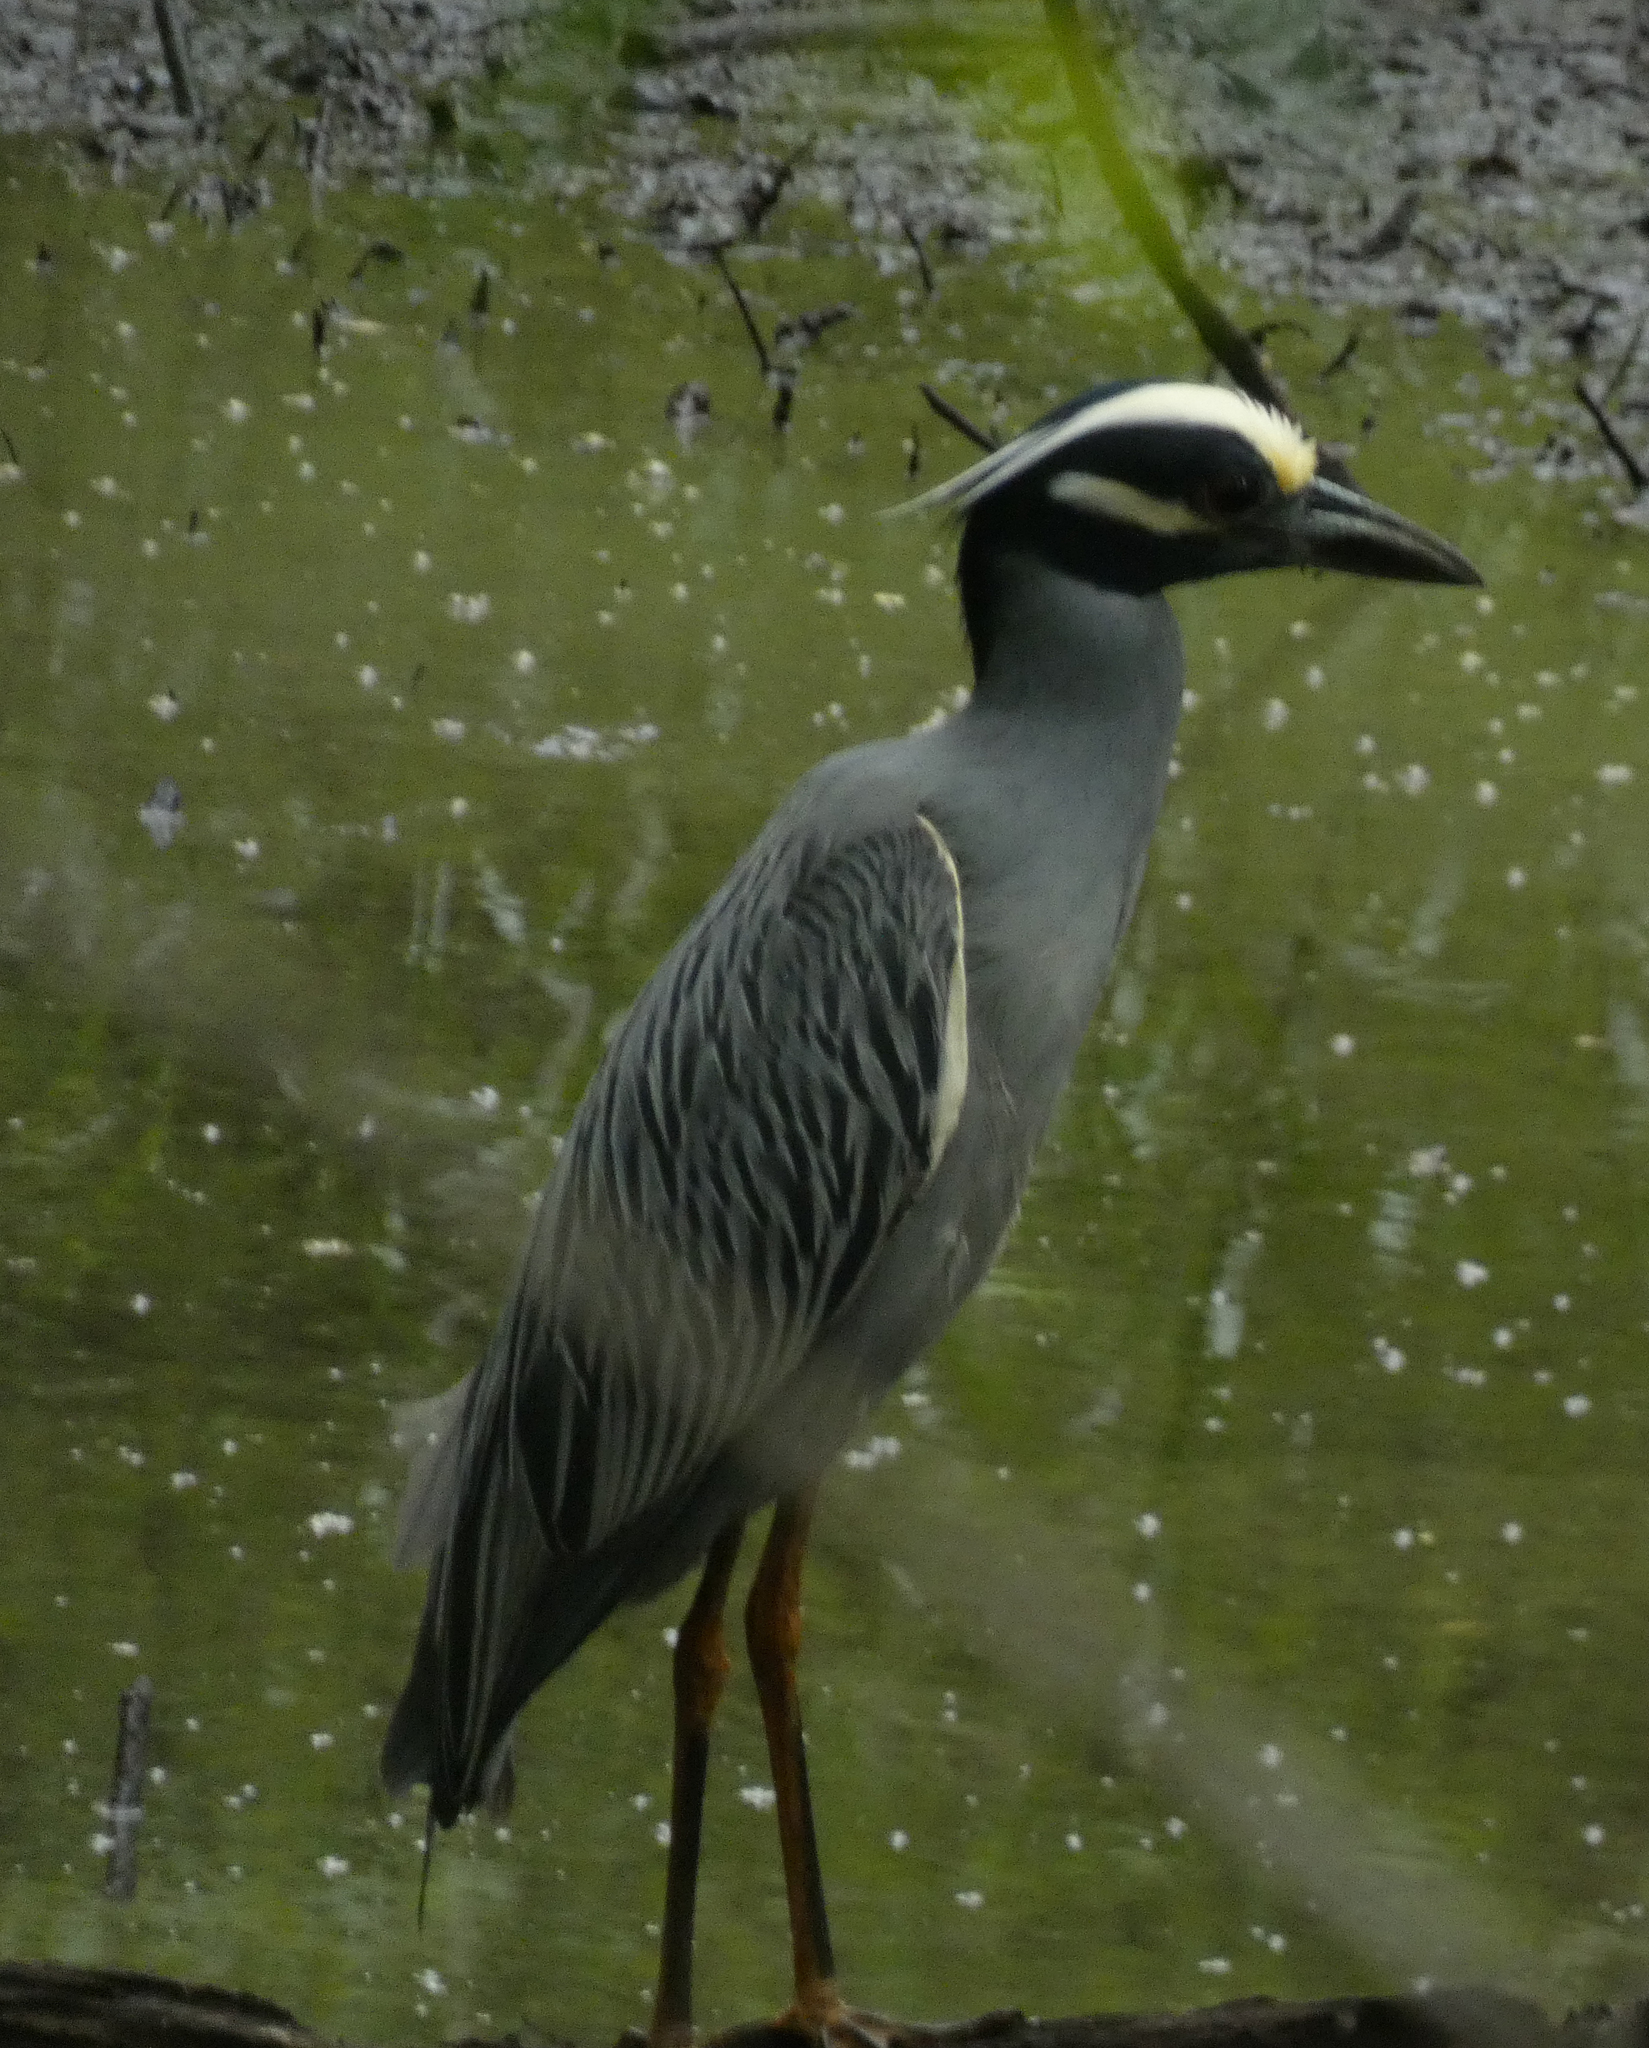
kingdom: Animalia
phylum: Chordata
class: Aves
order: Pelecaniformes
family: Ardeidae
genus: Nyctanassa
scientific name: Nyctanassa violacea
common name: Yellow-crowned night heron
